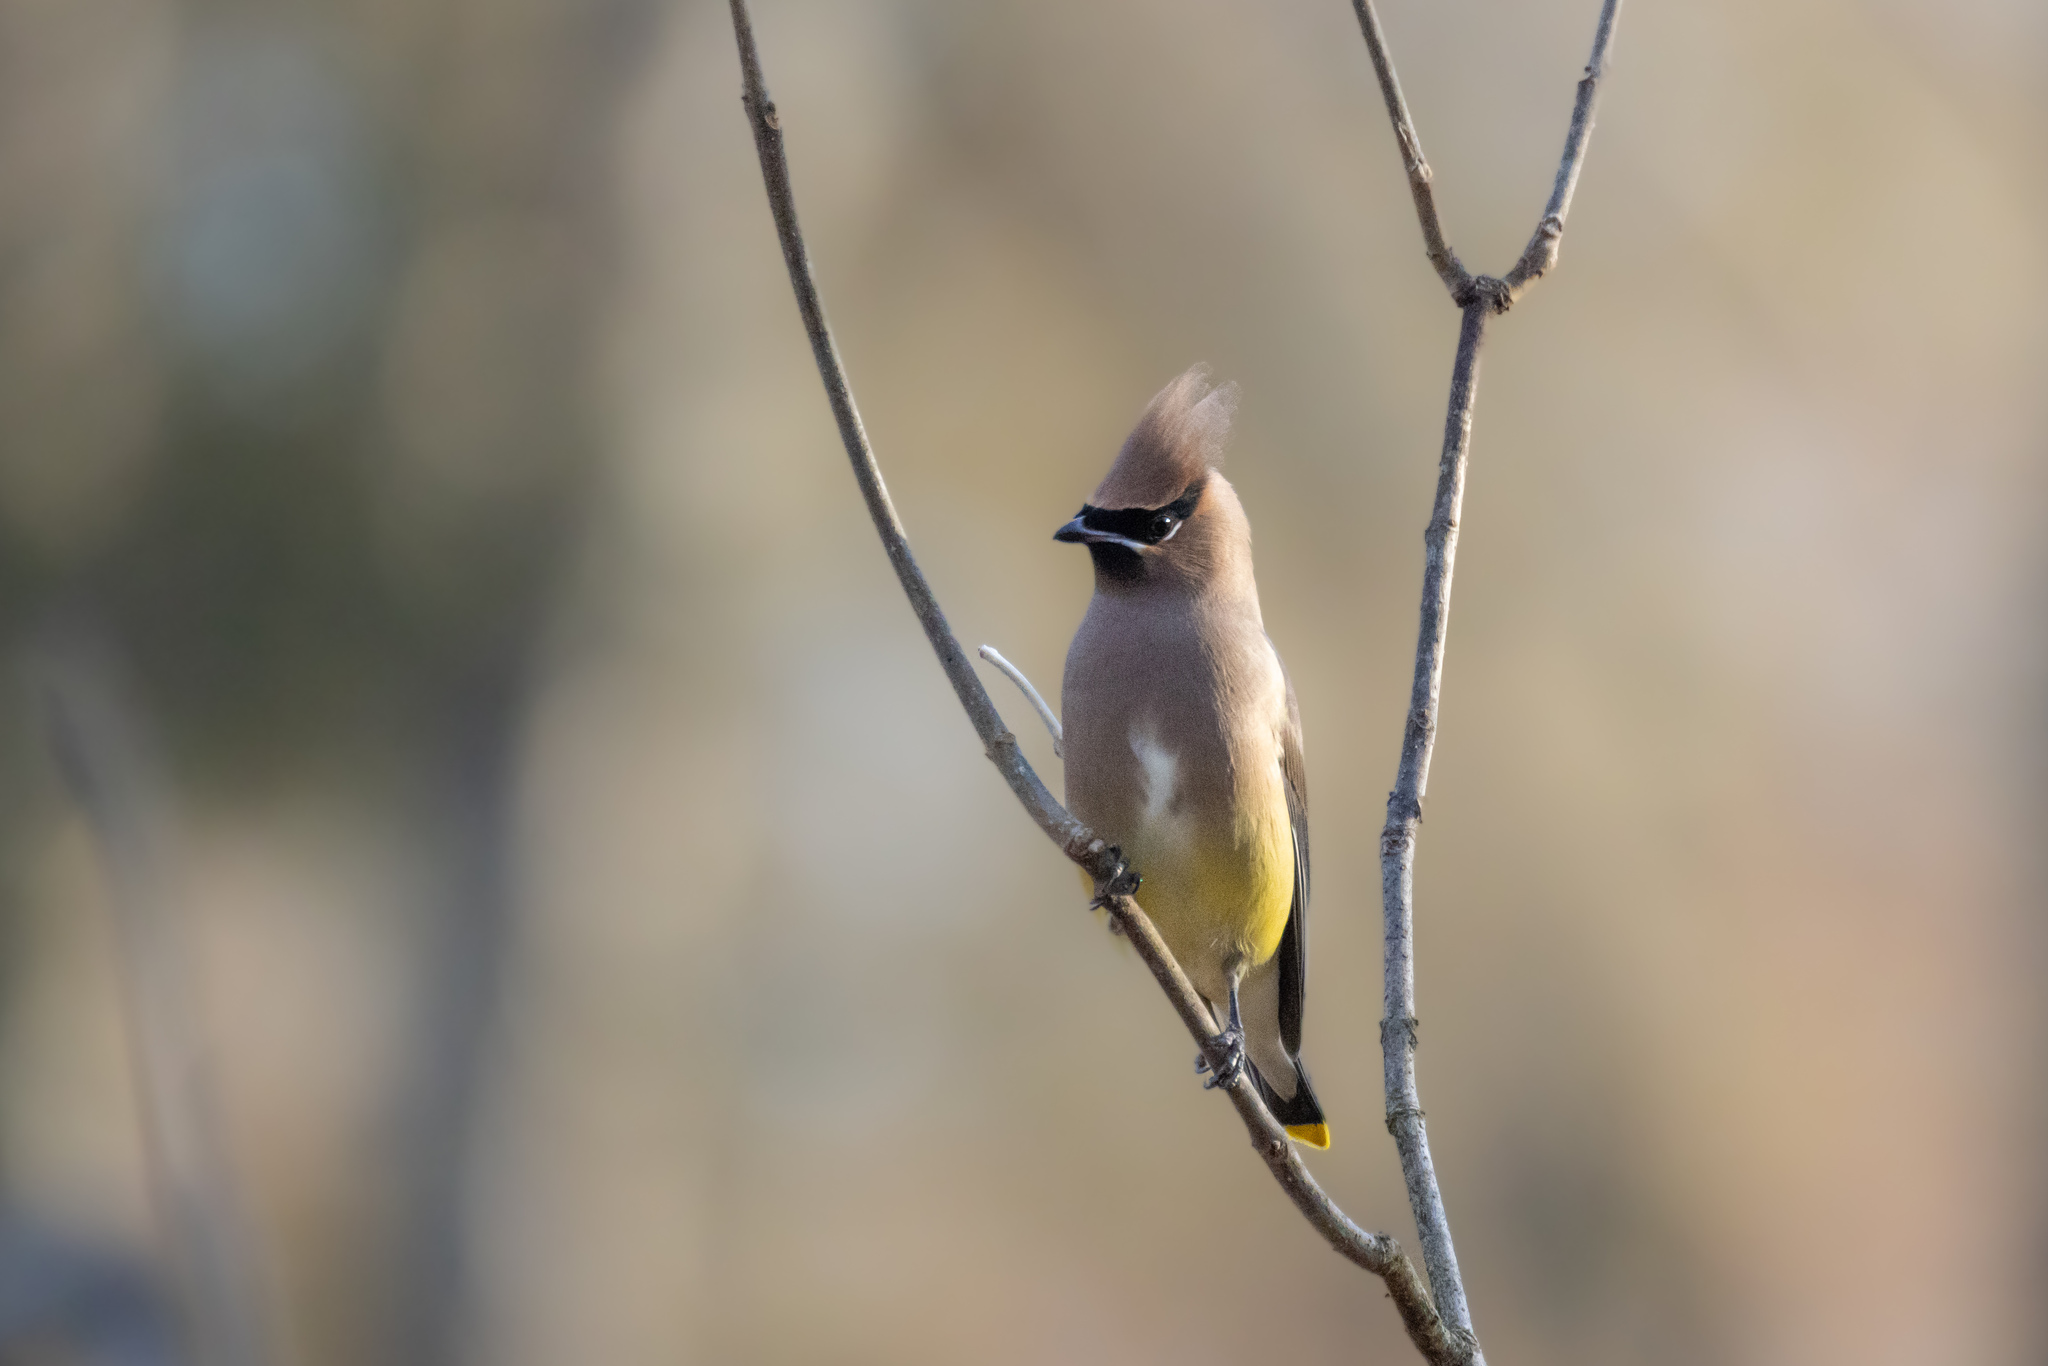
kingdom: Animalia
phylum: Chordata
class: Aves
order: Passeriformes
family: Bombycillidae
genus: Bombycilla
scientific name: Bombycilla cedrorum
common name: Cedar waxwing
